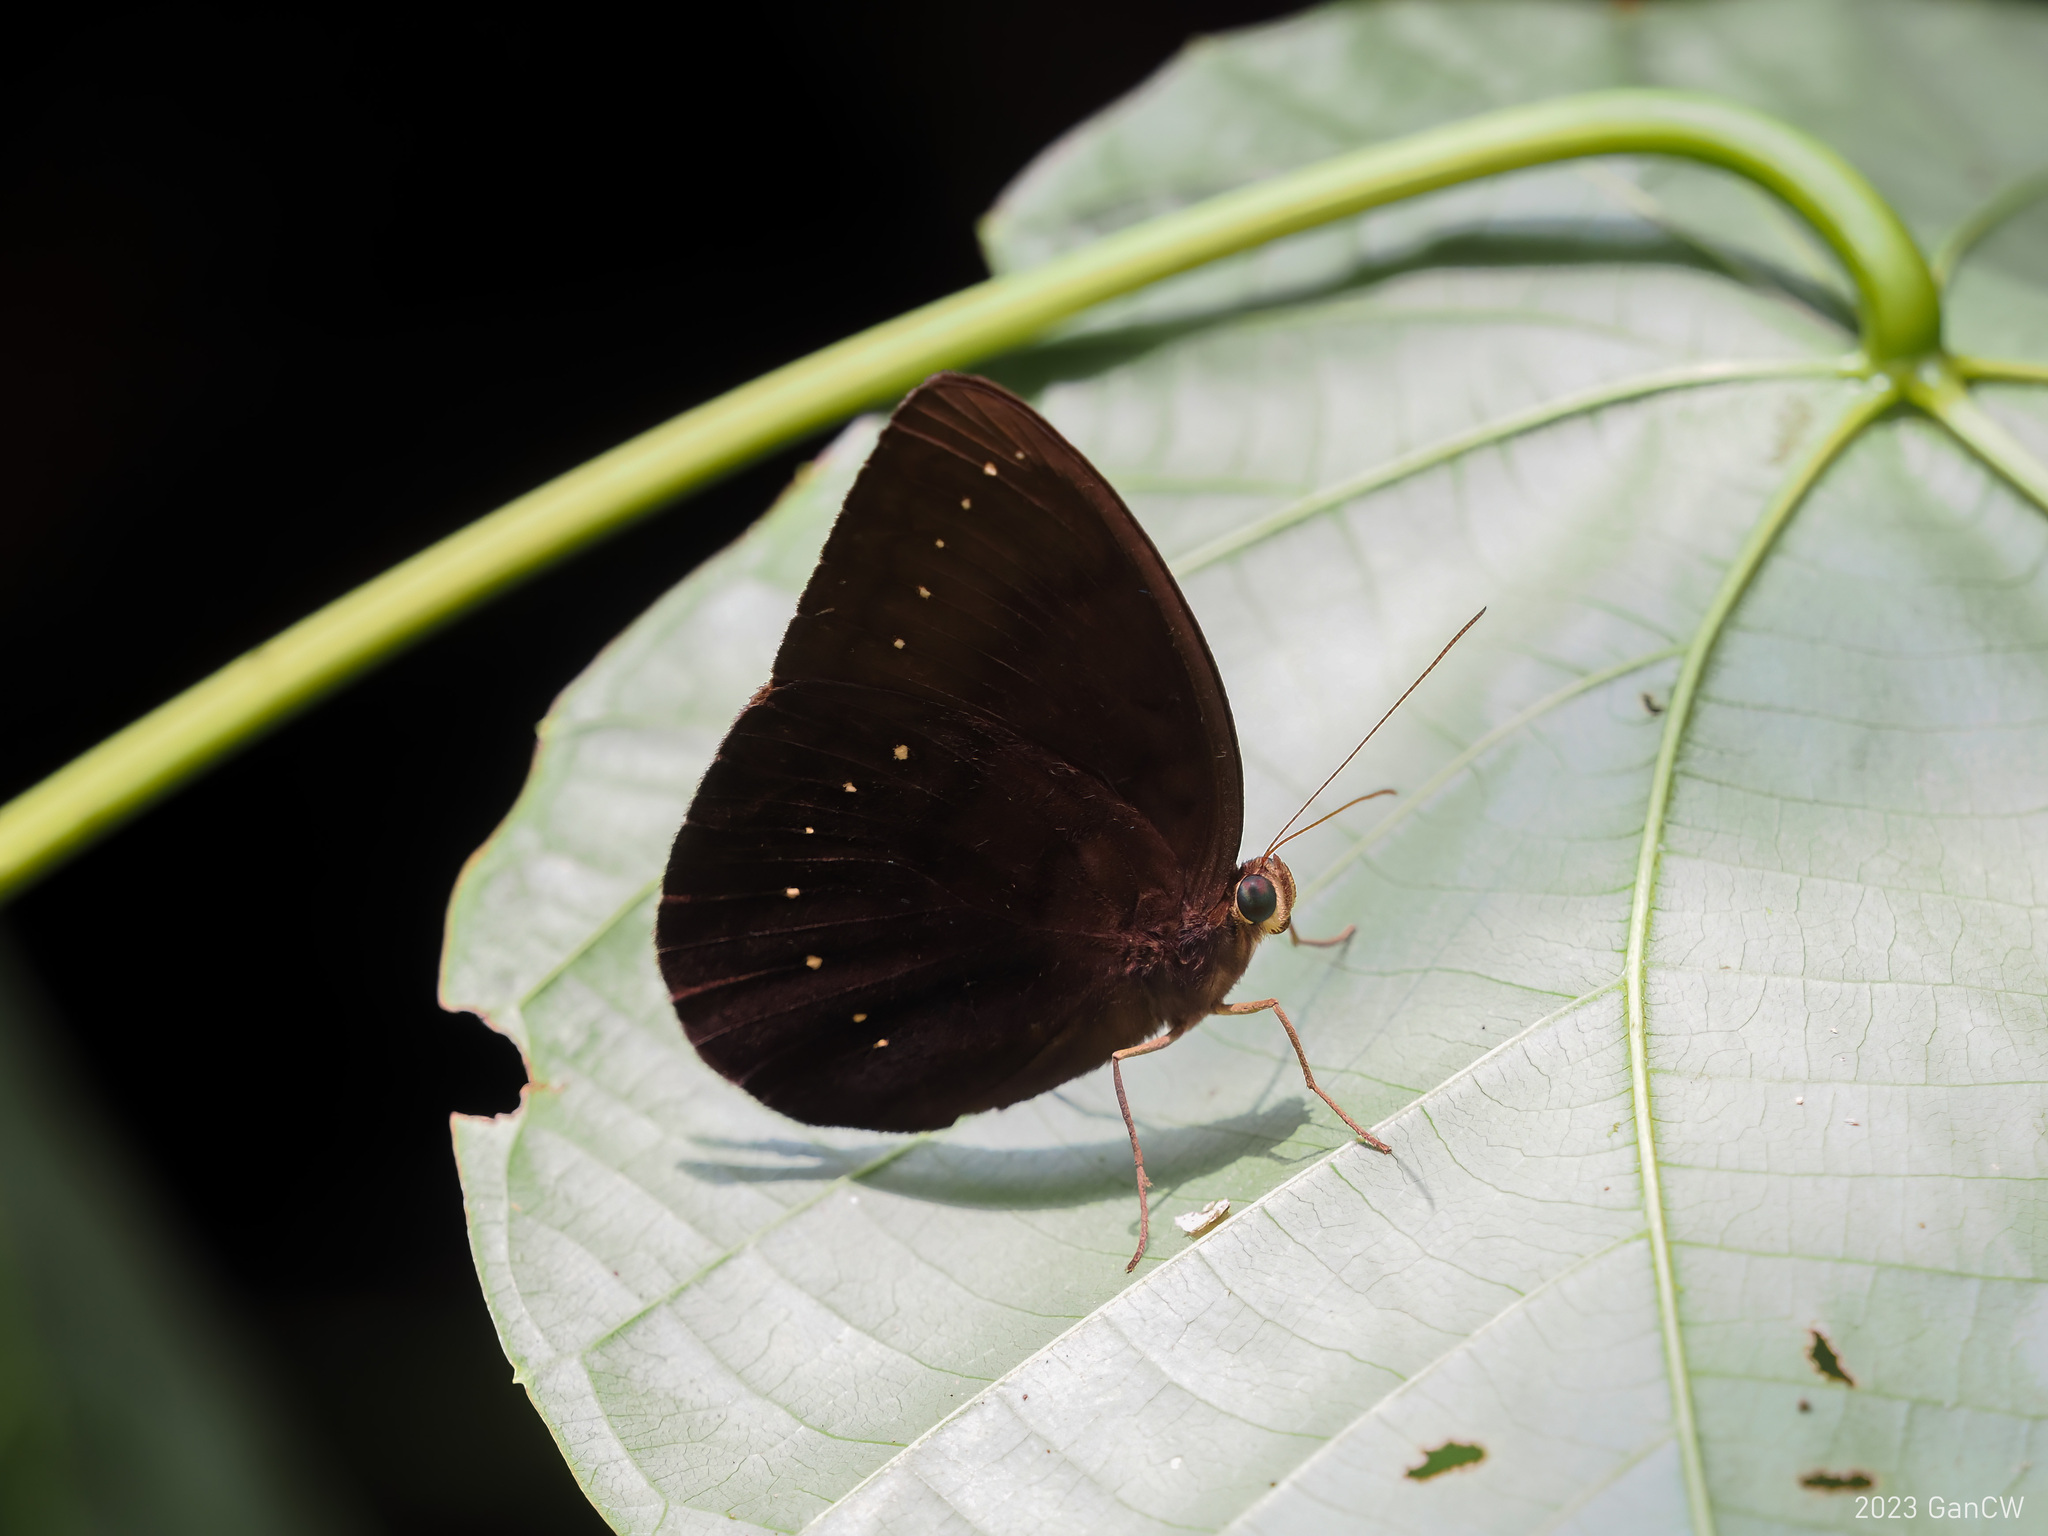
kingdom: Animalia
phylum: Arthropoda
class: Insecta
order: Lepidoptera
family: Nymphalidae
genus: Faunis
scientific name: Faunis kirata
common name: Broad striped faun
